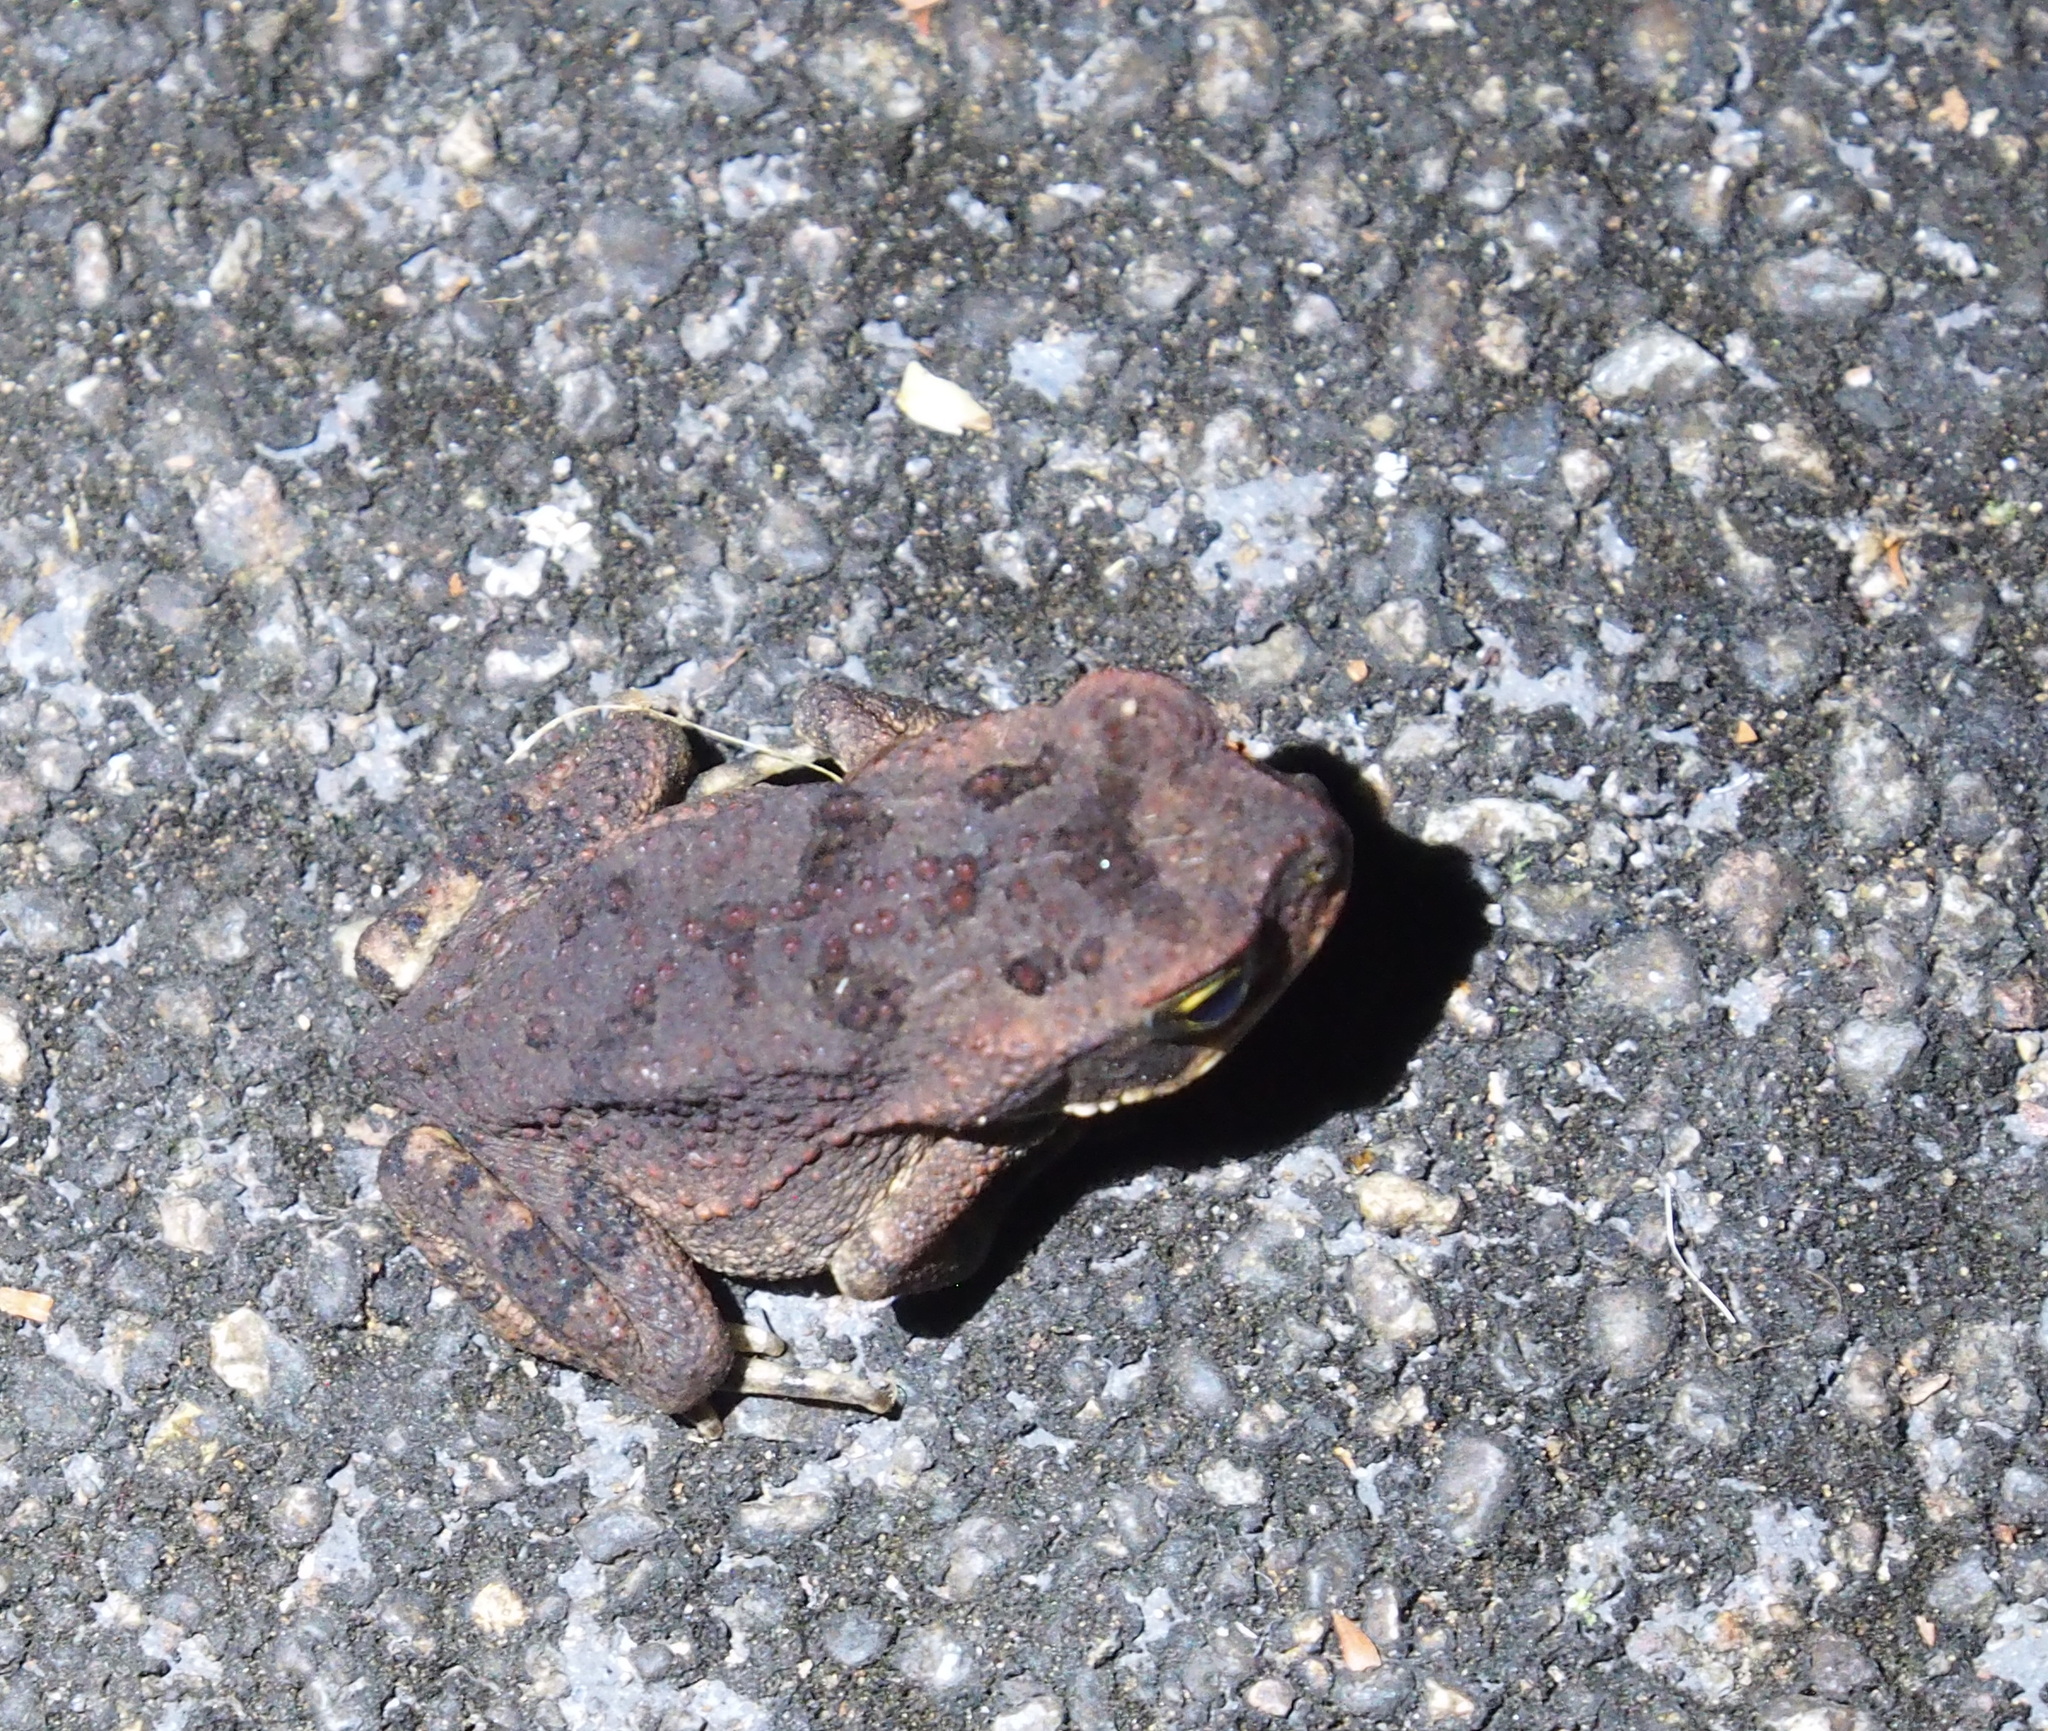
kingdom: Animalia
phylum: Chordata
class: Amphibia
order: Anura
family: Bufonidae
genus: Rhinella
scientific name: Rhinella horribilis
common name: Mesoamerican cane toad
